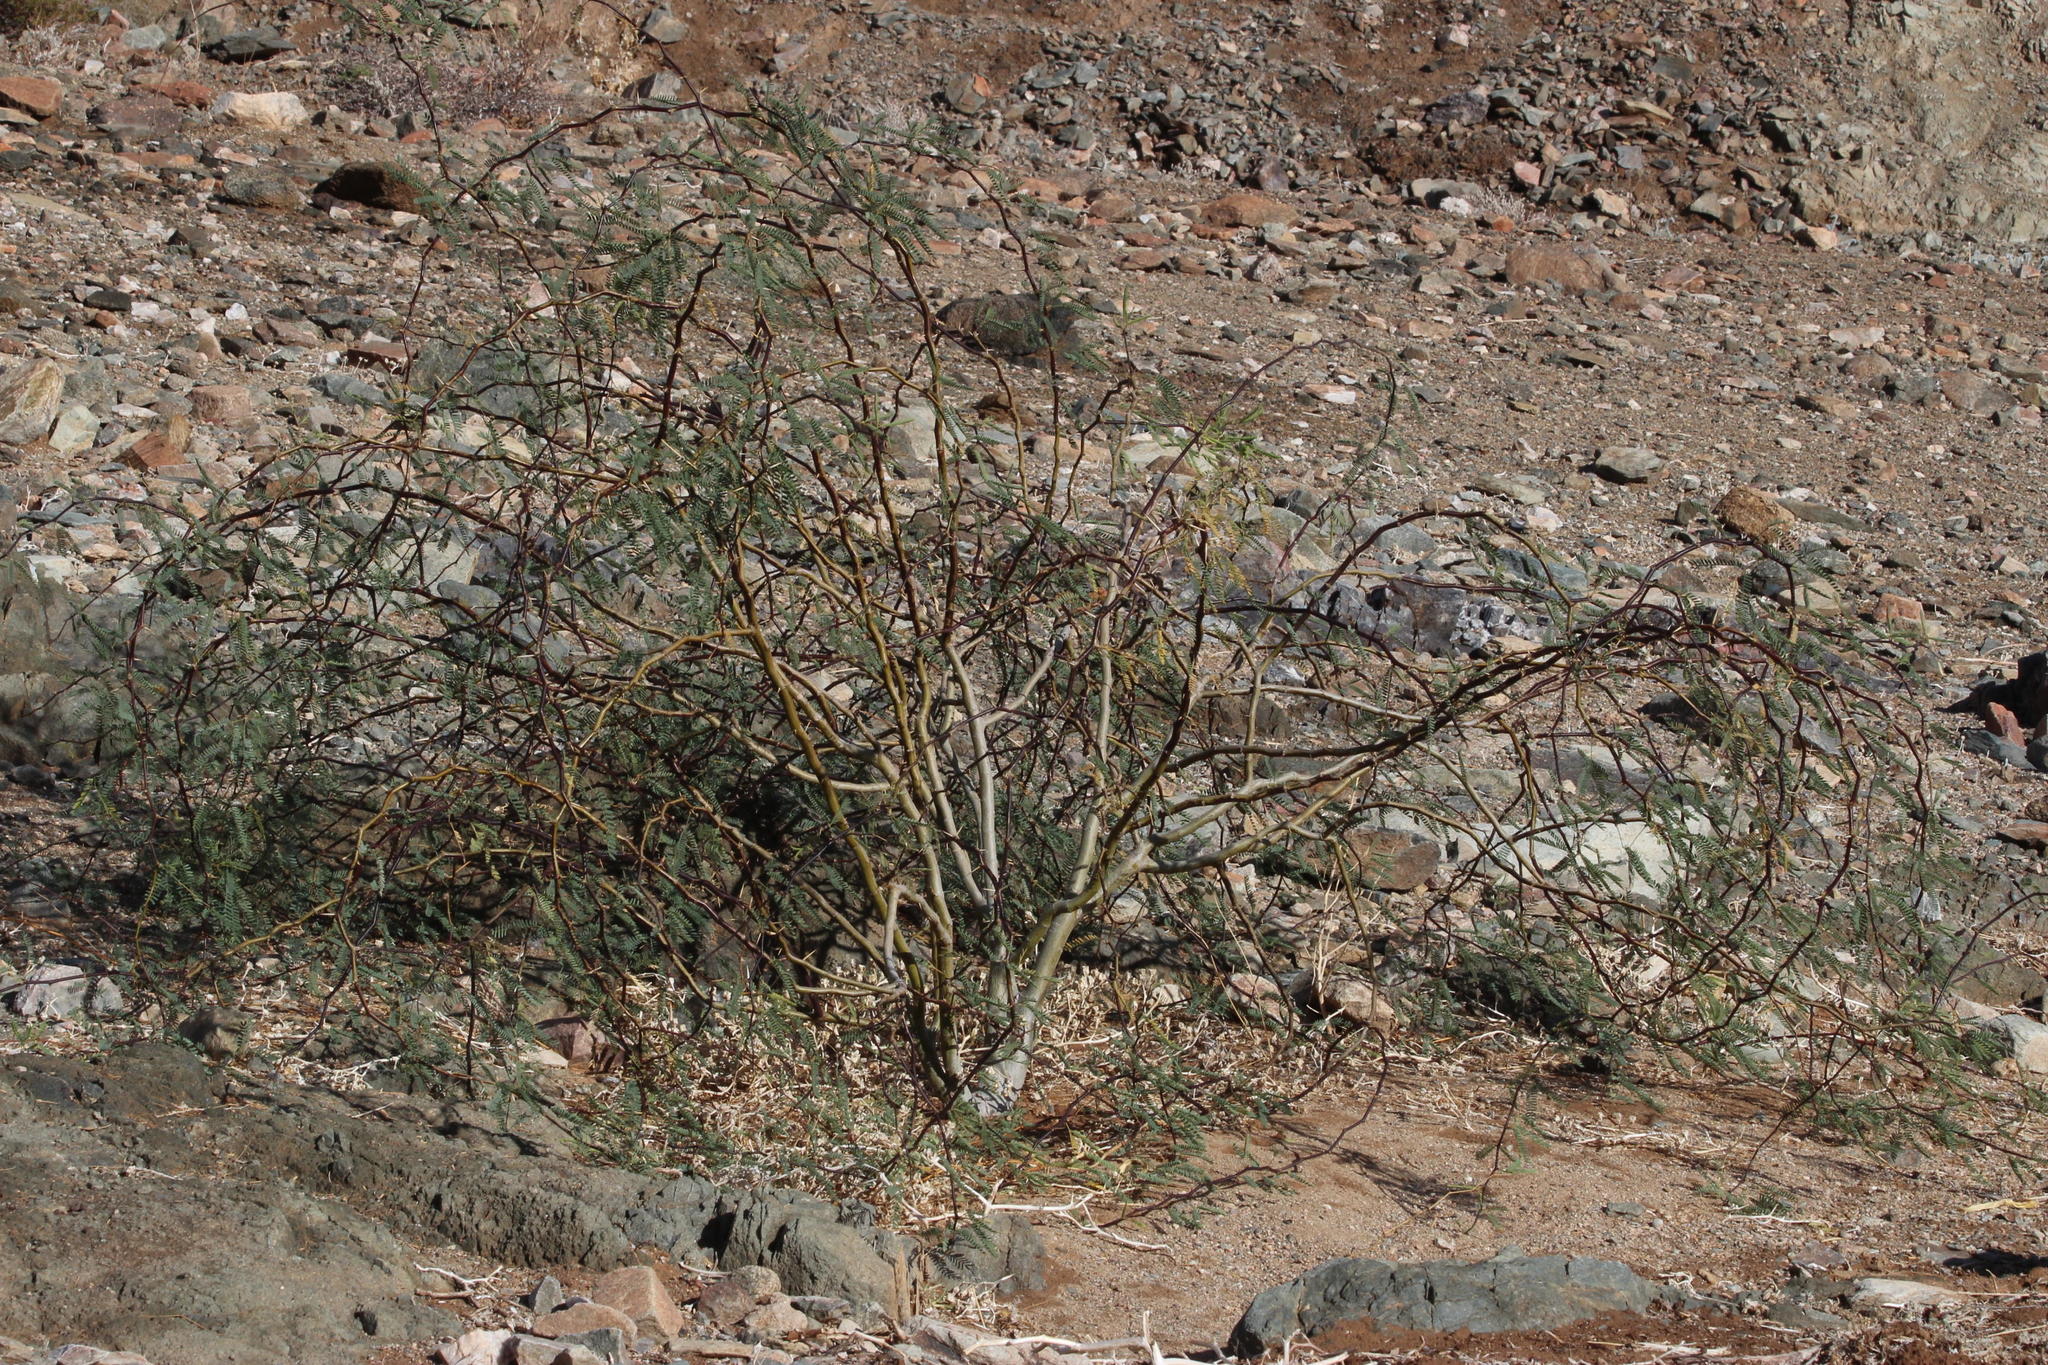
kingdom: Plantae
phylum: Tracheophyta
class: Magnoliopsida
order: Fabales
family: Fabaceae
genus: Prosopis
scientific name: Prosopis glandulosa
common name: Honey mesquite
